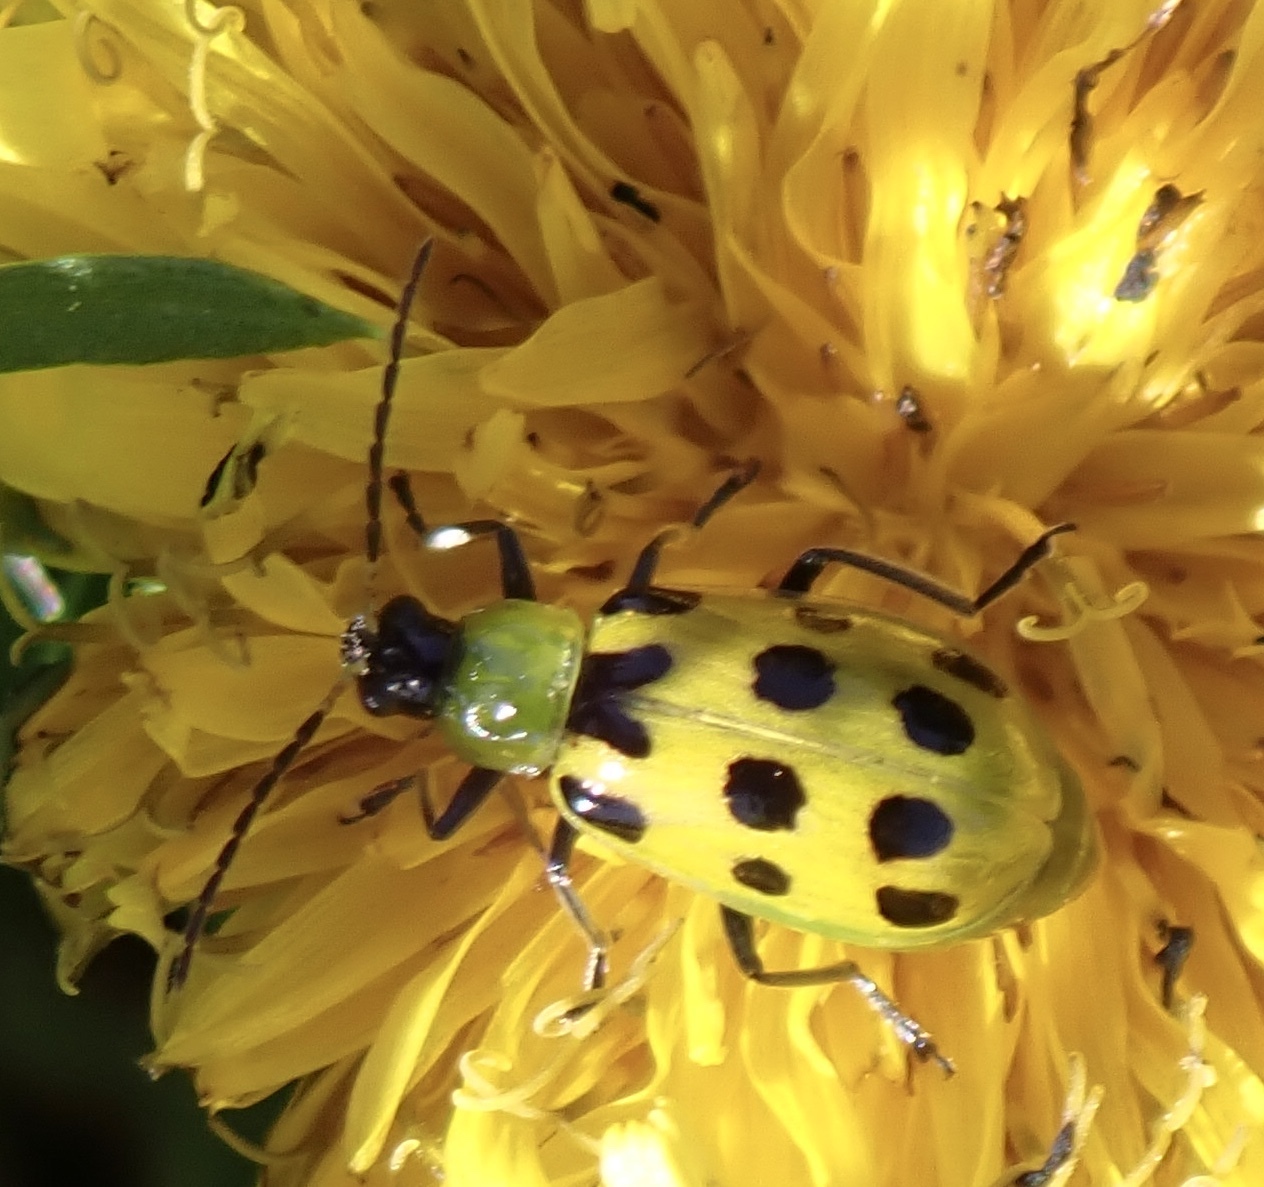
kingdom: Animalia
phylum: Arthropoda
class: Insecta
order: Coleoptera
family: Chrysomelidae
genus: Diabrotica
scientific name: Diabrotica undecimpunctata
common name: Spotted cucumber beetle
